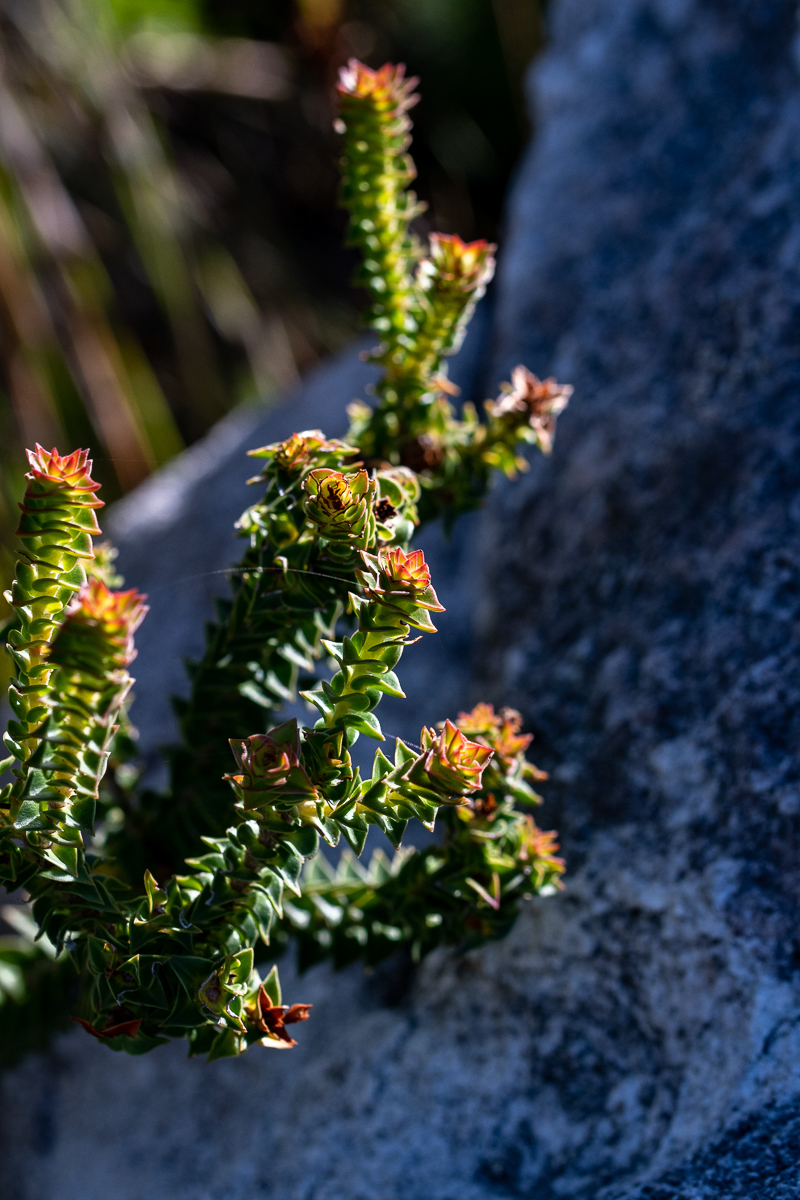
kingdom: Plantae
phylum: Tracheophyta
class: Magnoliopsida
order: Myrtales
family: Penaeaceae
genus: Penaea
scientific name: Penaea mucronata
